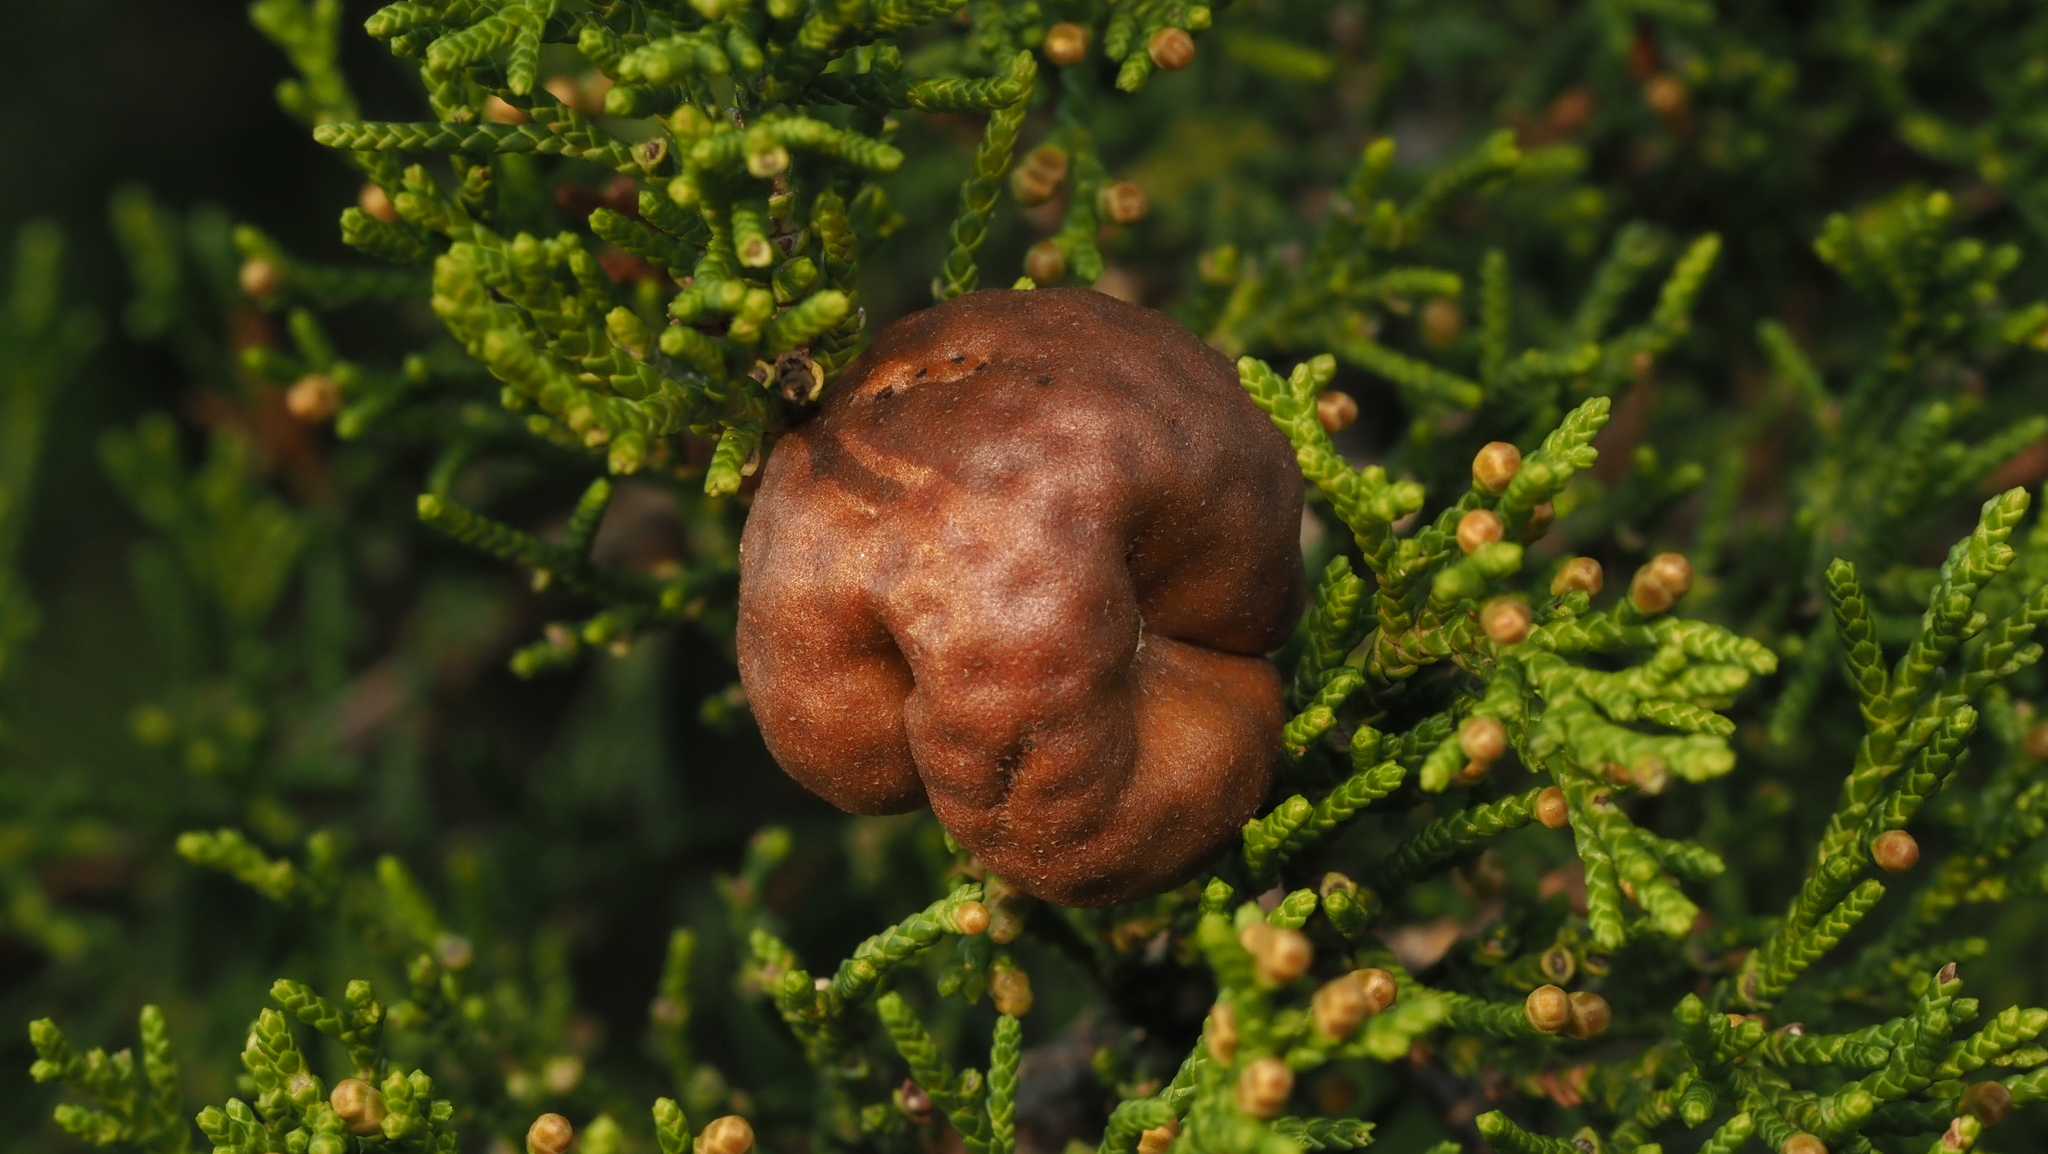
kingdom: Fungi
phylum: Basidiomycota
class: Pucciniomycetes
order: Pucciniales
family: Gymnosporangiaceae
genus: Gymnosporangium
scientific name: Gymnosporangium juniperi-virginianae
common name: Juniper-apple rust
